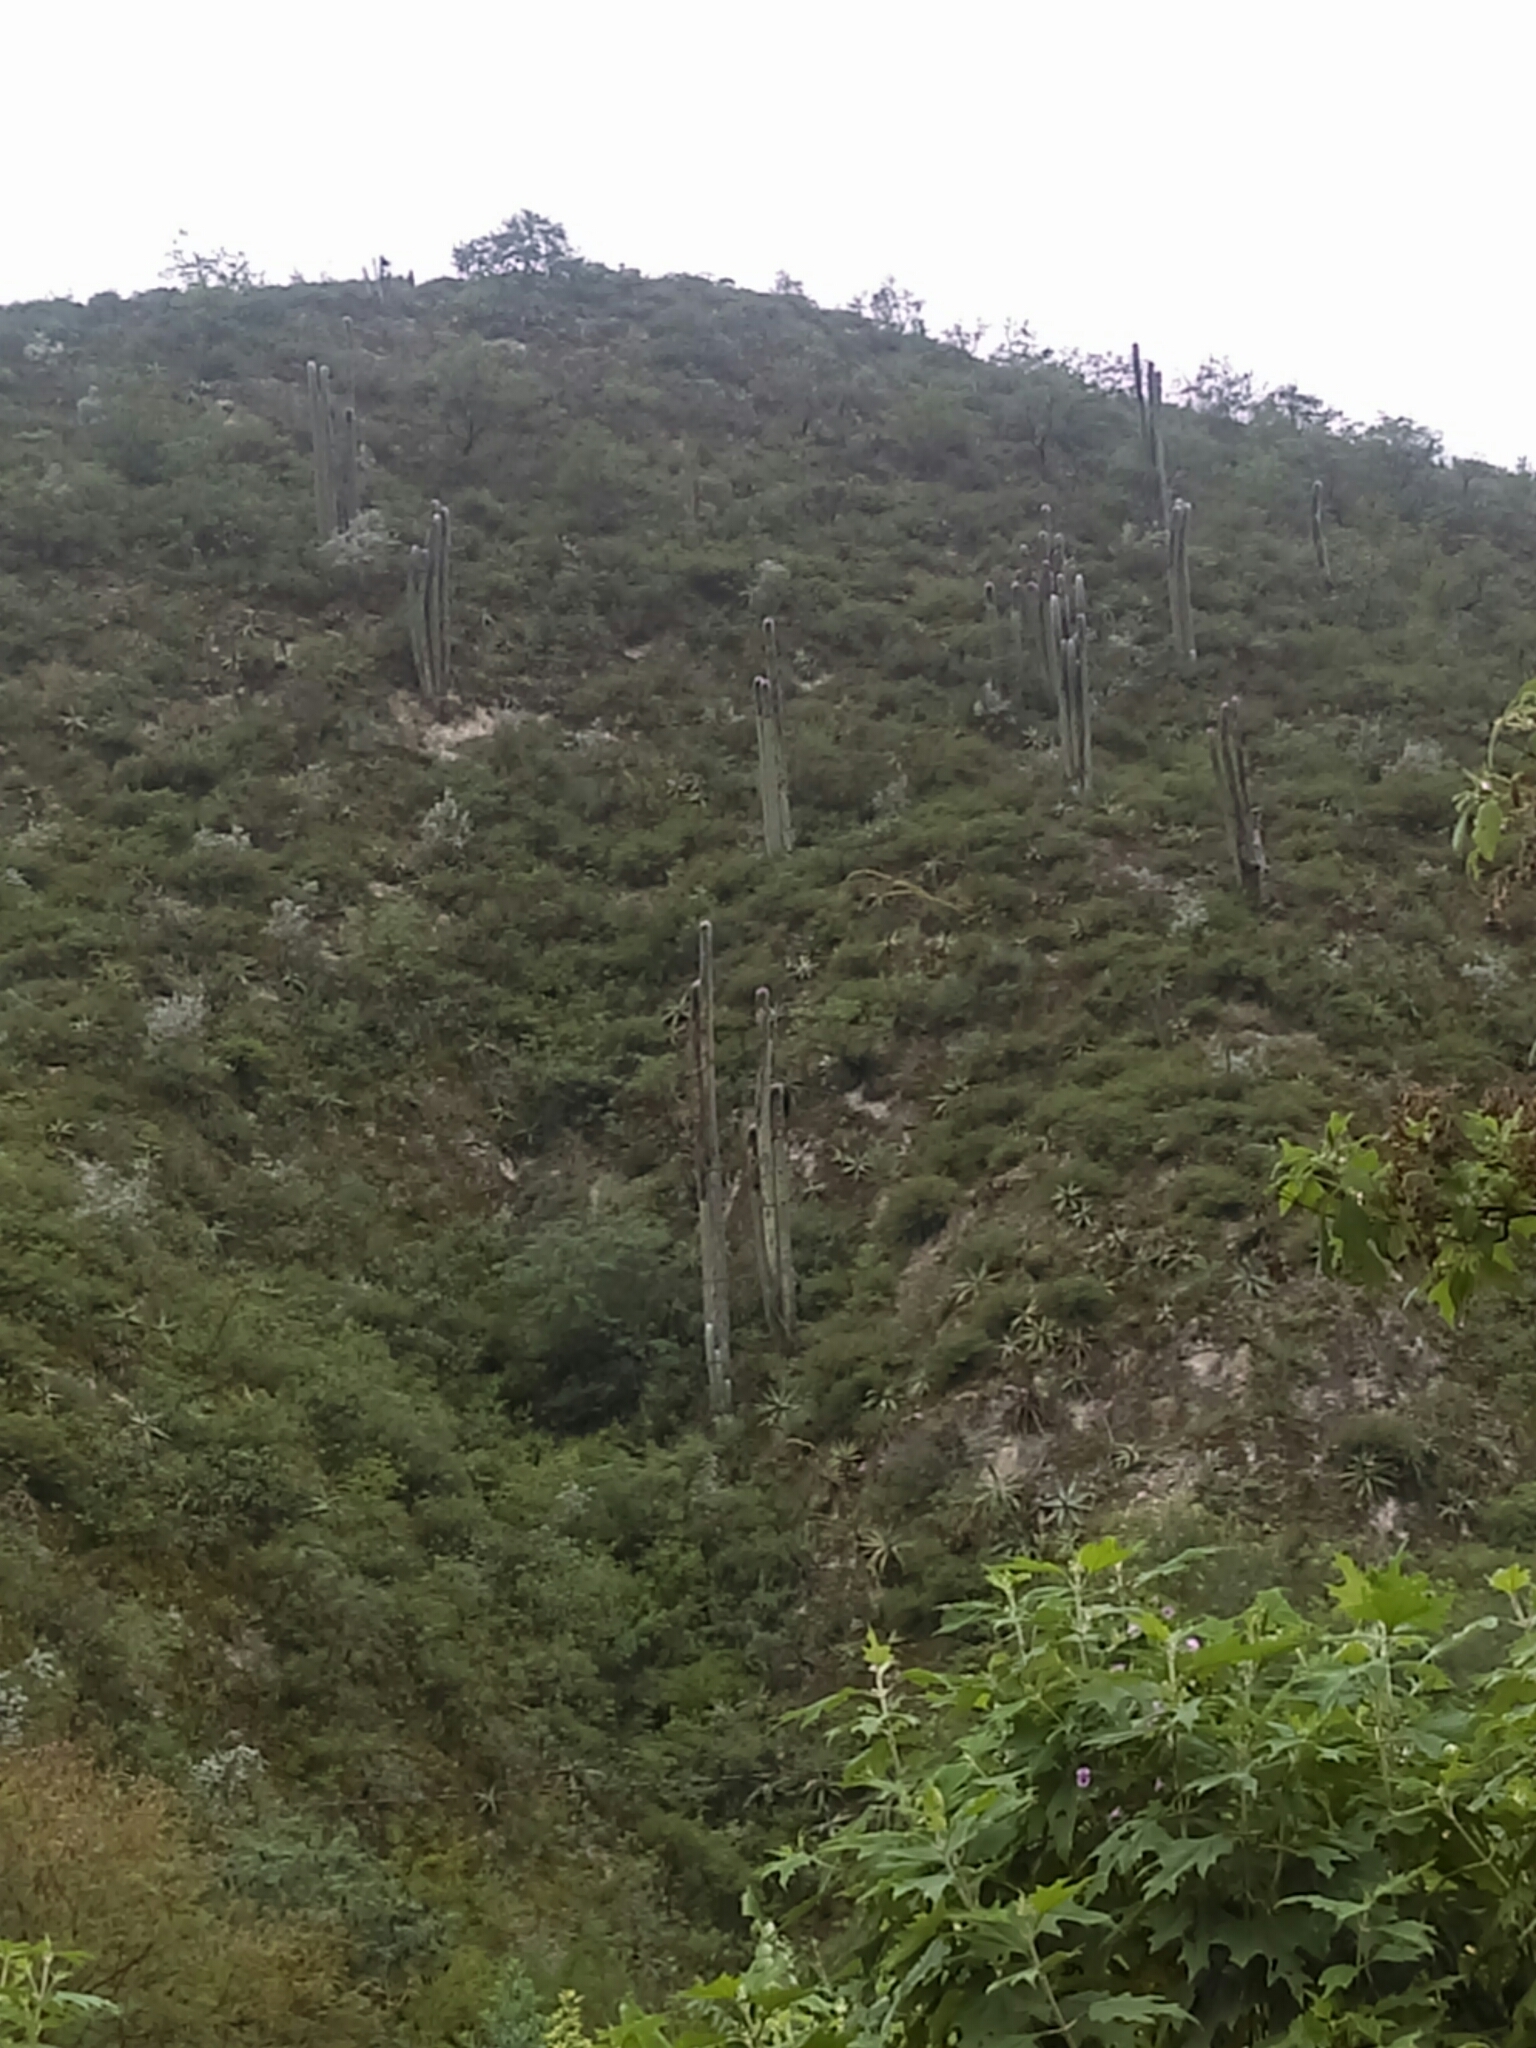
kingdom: Plantae
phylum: Tracheophyta
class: Magnoliopsida
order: Caryophyllales
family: Cactaceae
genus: Cephalocereus
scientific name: Cephalocereus senilis
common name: Old man cactus
